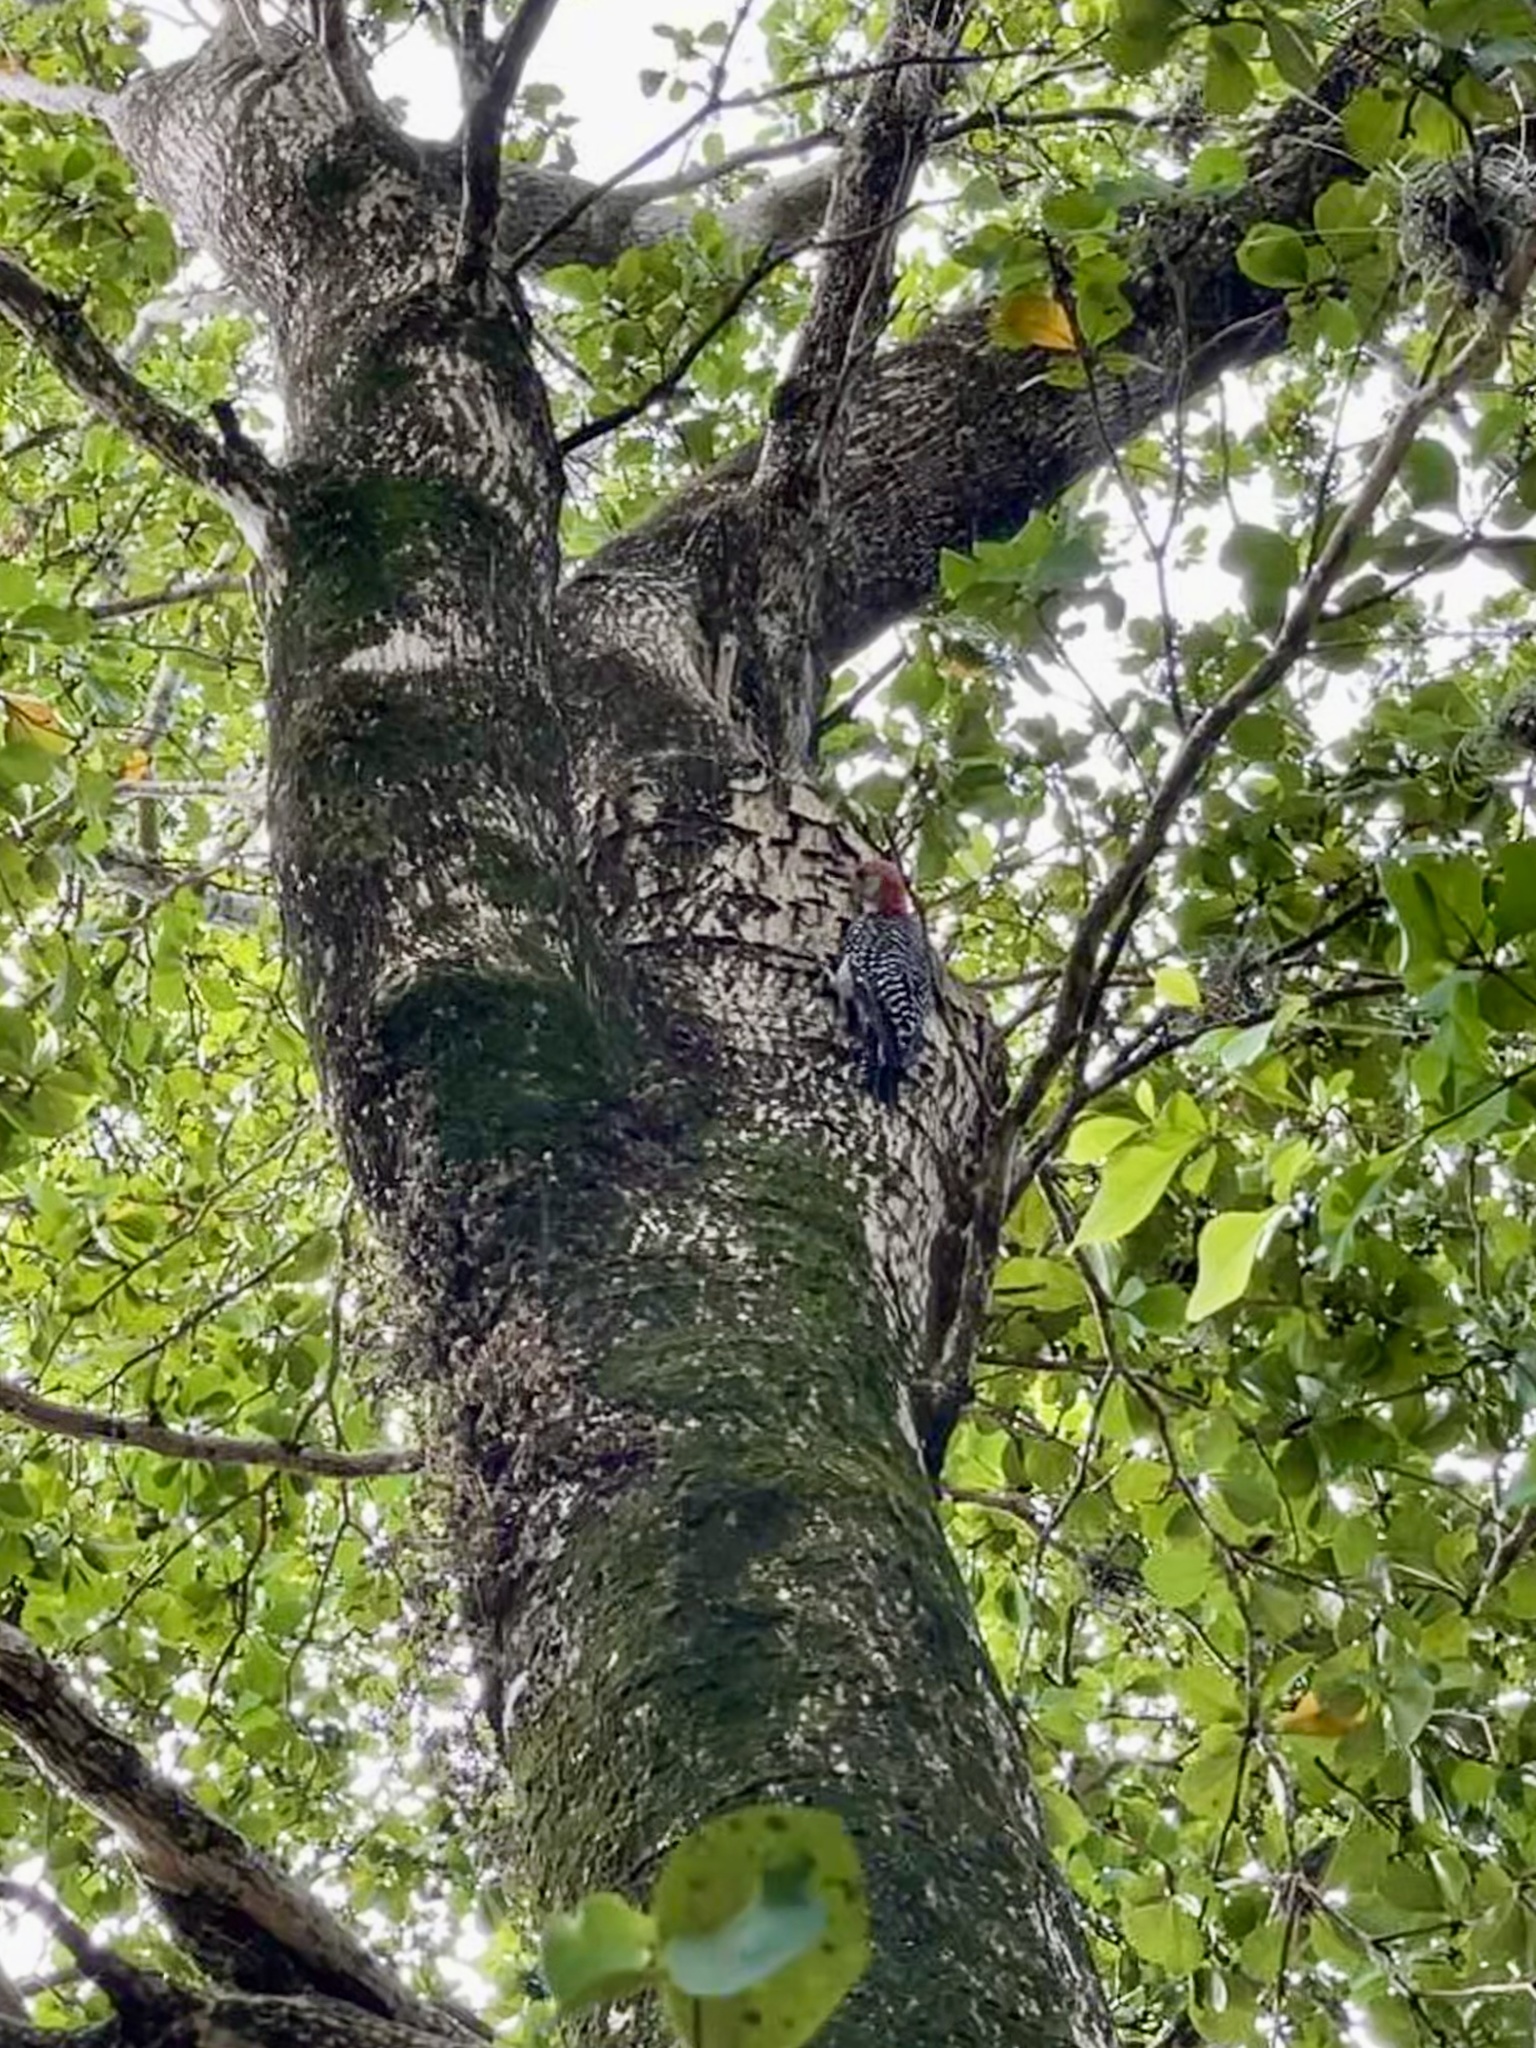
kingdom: Animalia
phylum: Chordata
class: Aves
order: Piciformes
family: Picidae
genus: Melanerpes
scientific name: Melanerpes carolinus
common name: Red-bellied woodpecker
